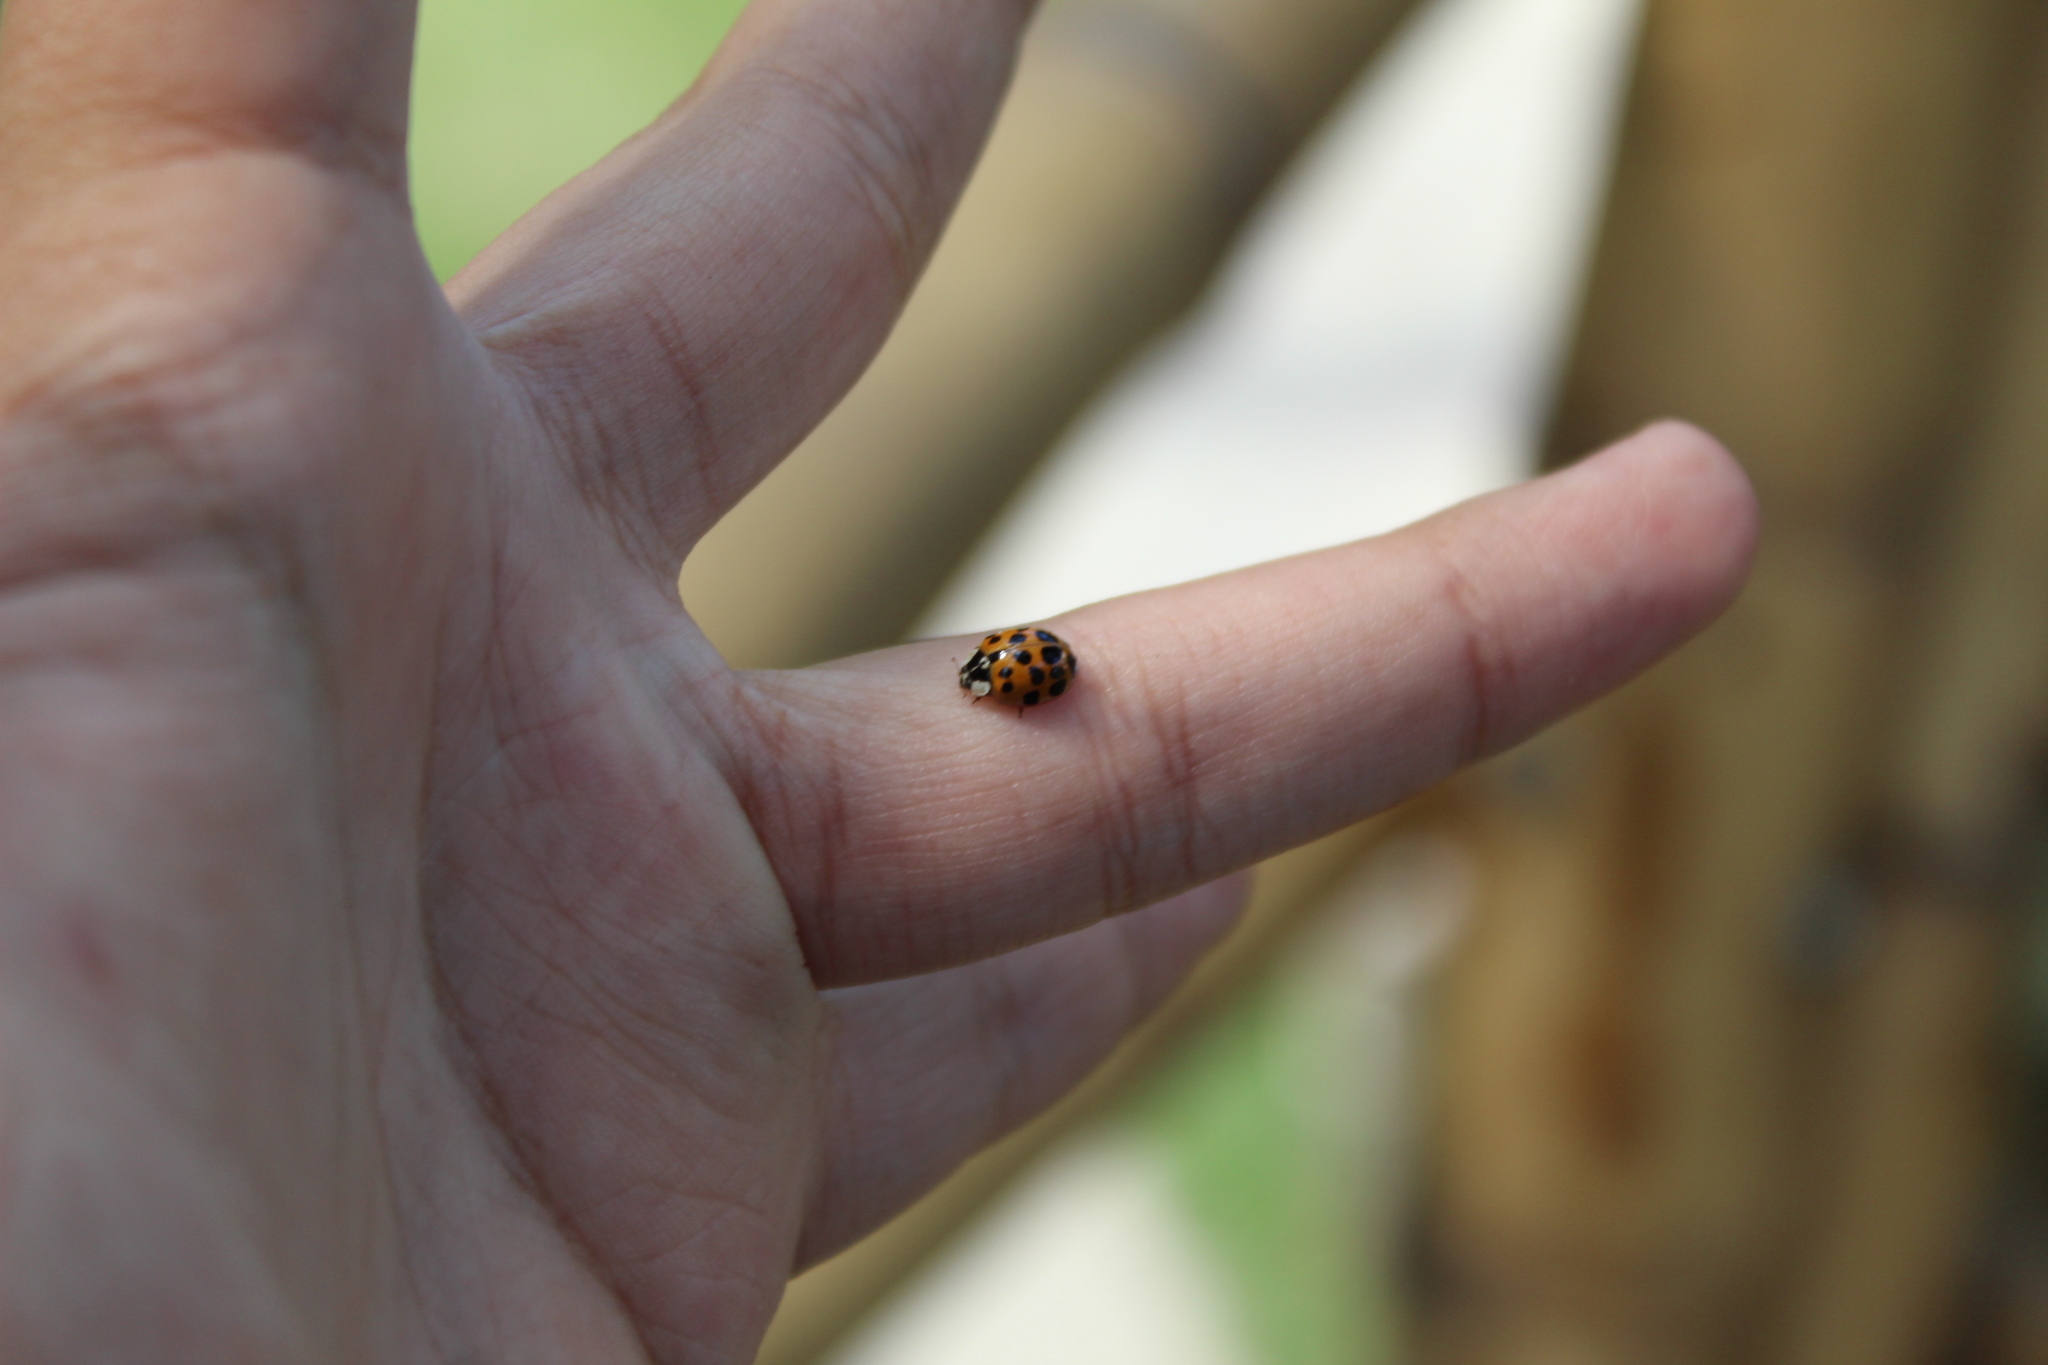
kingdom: Animalia
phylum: Arthropoda
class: Insecta
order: Coleoptera
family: Coccinellidae
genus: Harmonia
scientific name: Harmonia axyridis
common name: Harlequin ladybird
